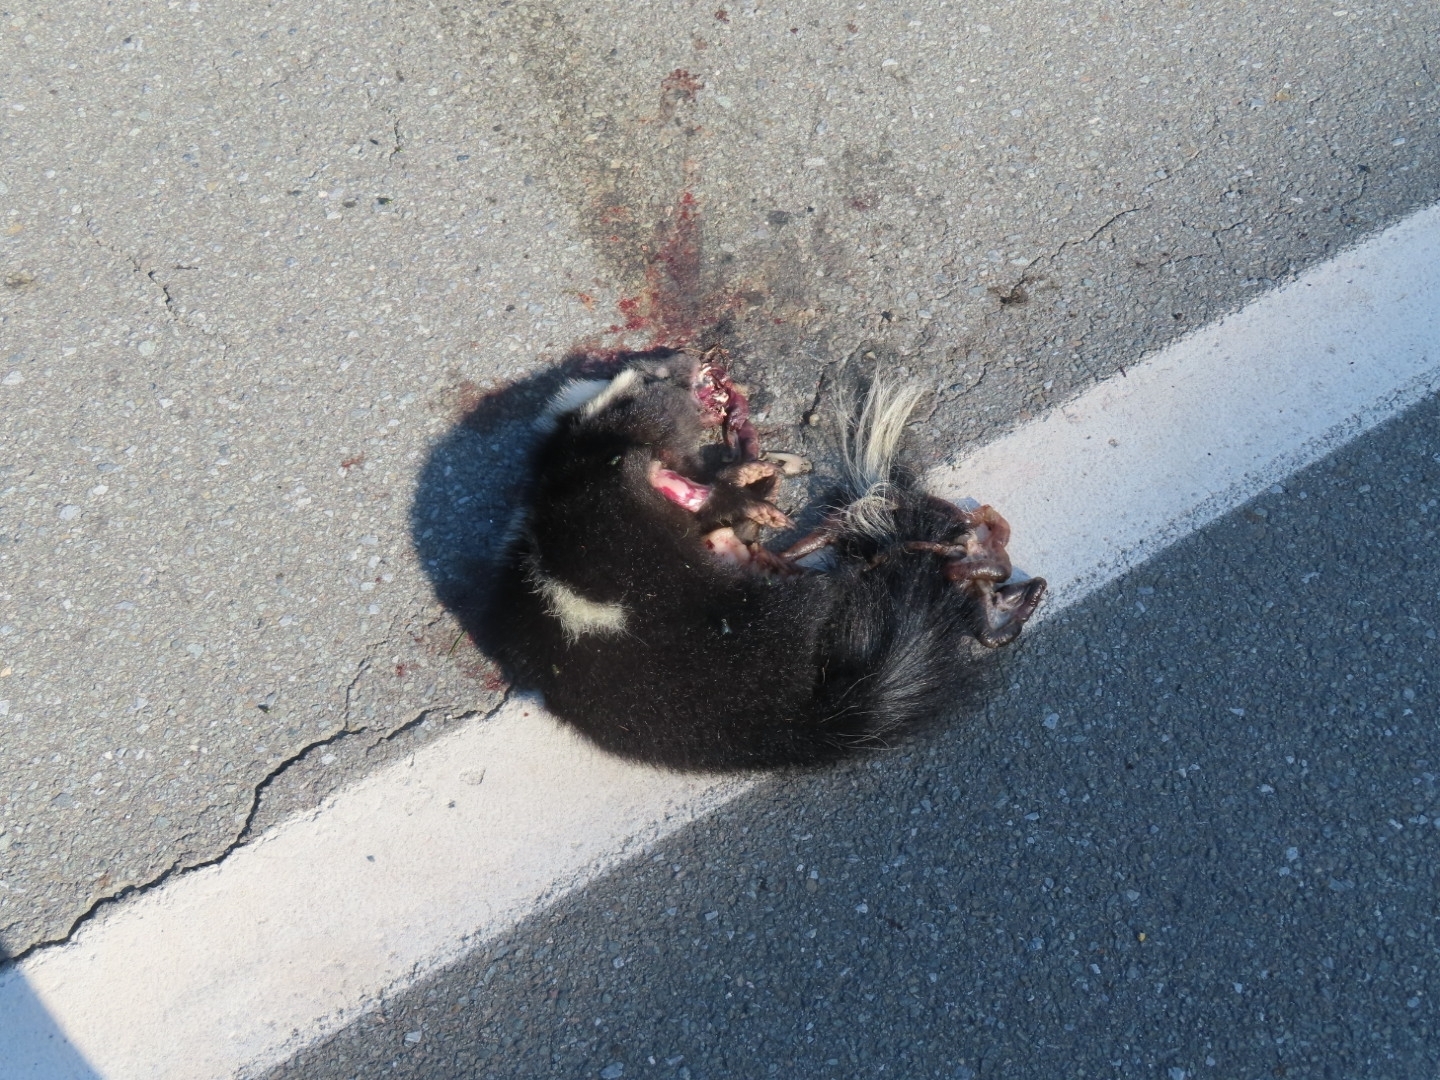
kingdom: Animalia
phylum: Chordata
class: Mammalia
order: Carnivora
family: Mephitidae
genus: Mephitis
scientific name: Mephitis mephitis
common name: Striped skunk
